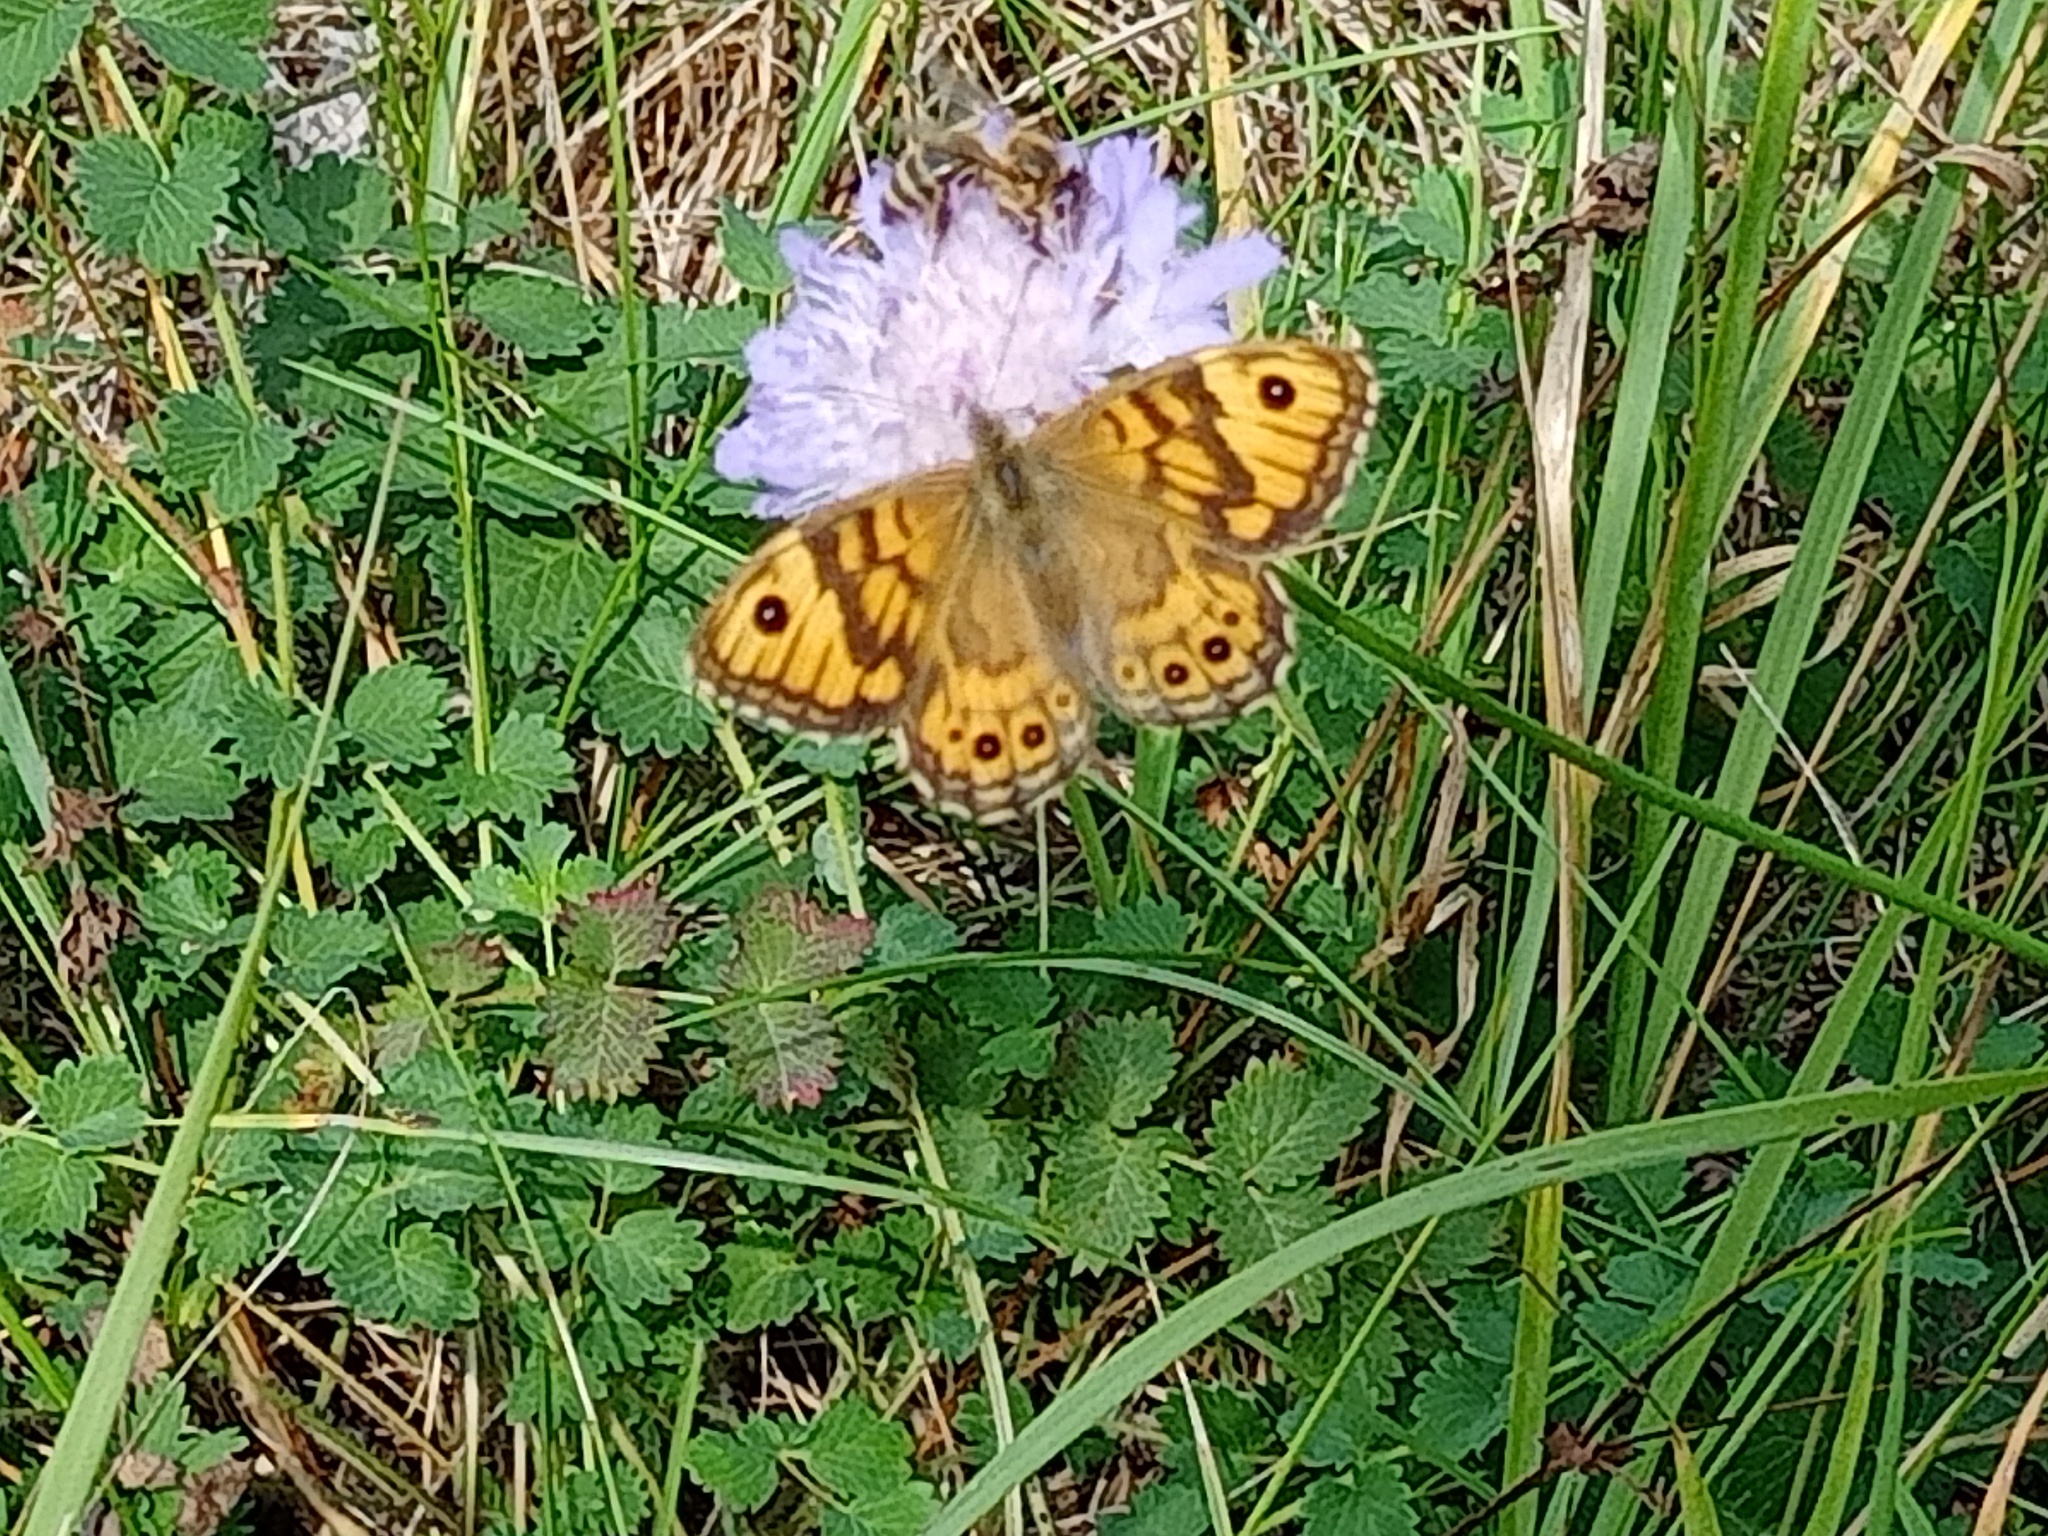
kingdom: Animalia
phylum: Arthropoda
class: Insecta
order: Lepidoptera
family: Nymphalidae
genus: Pararge
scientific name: Pararge Lasiommata megera
